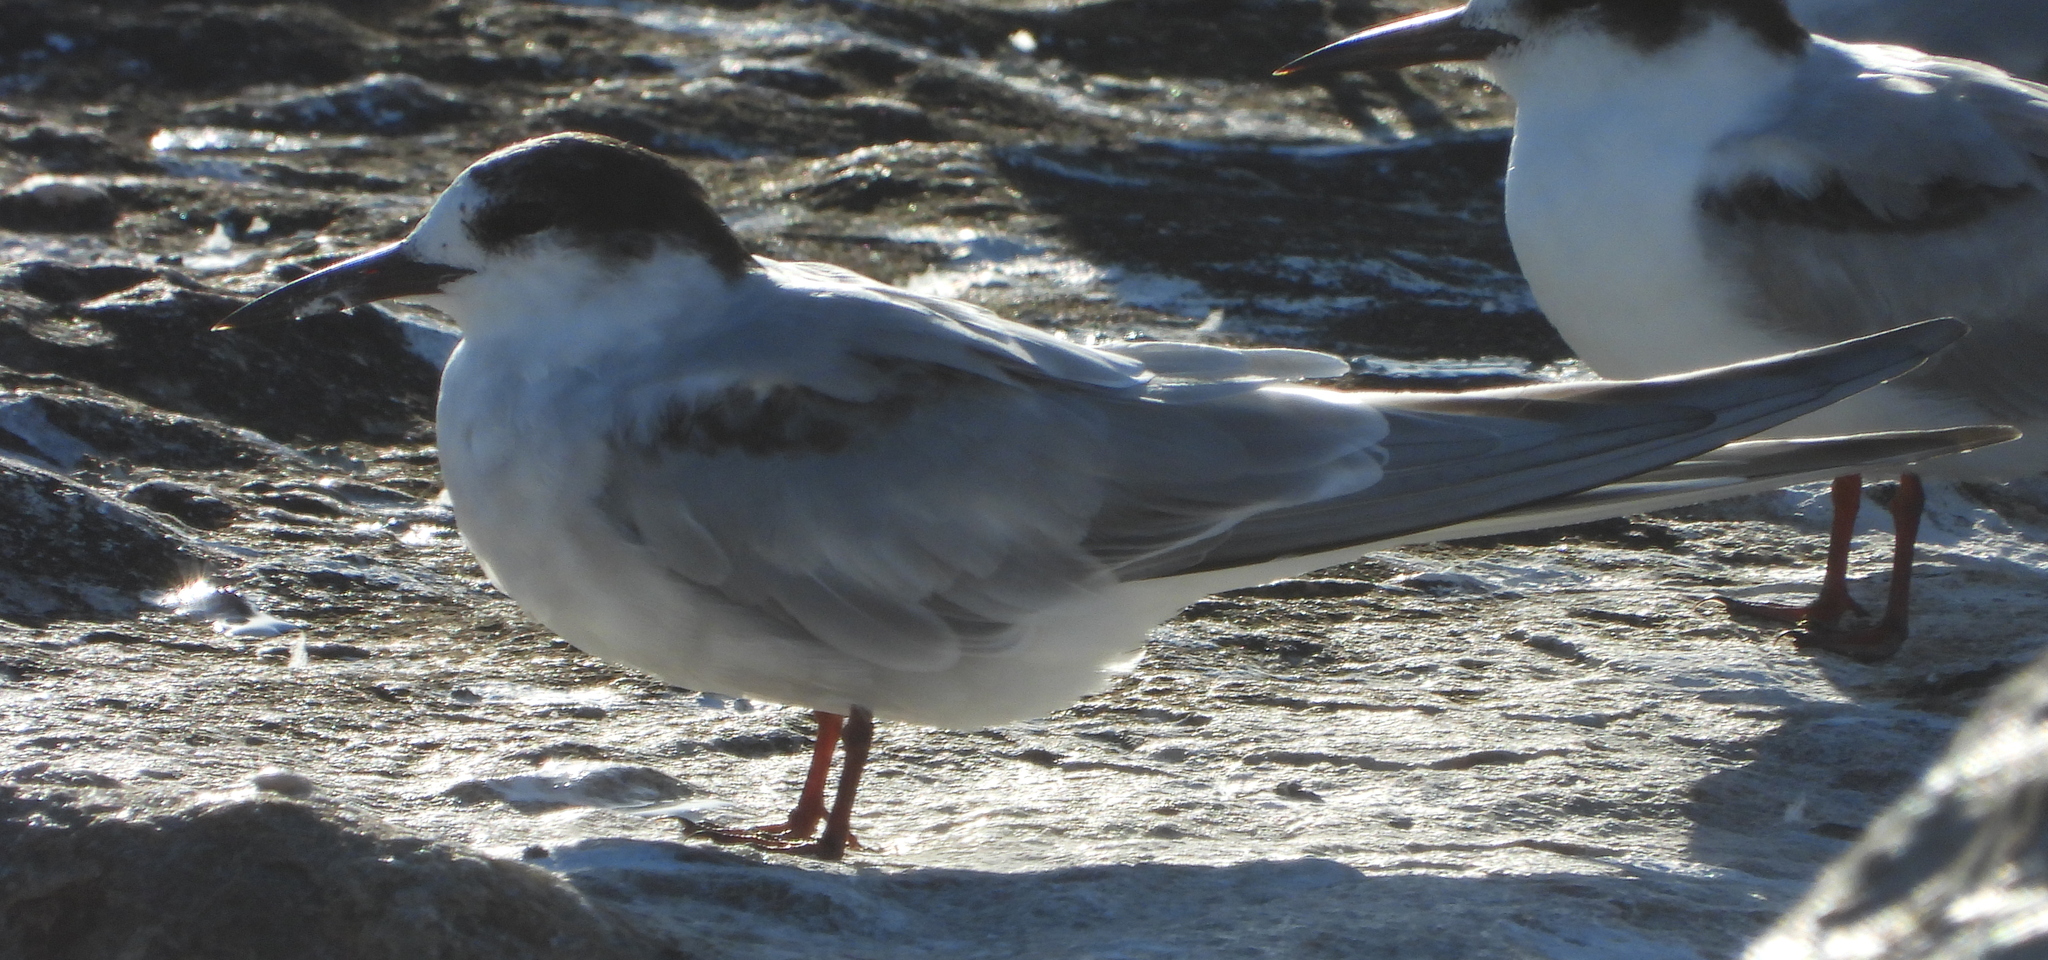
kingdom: Animalia
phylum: Chordata
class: Aves
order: Charadriiformes
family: Laridae
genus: Sterna
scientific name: Sterna hirundo
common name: Common tern
